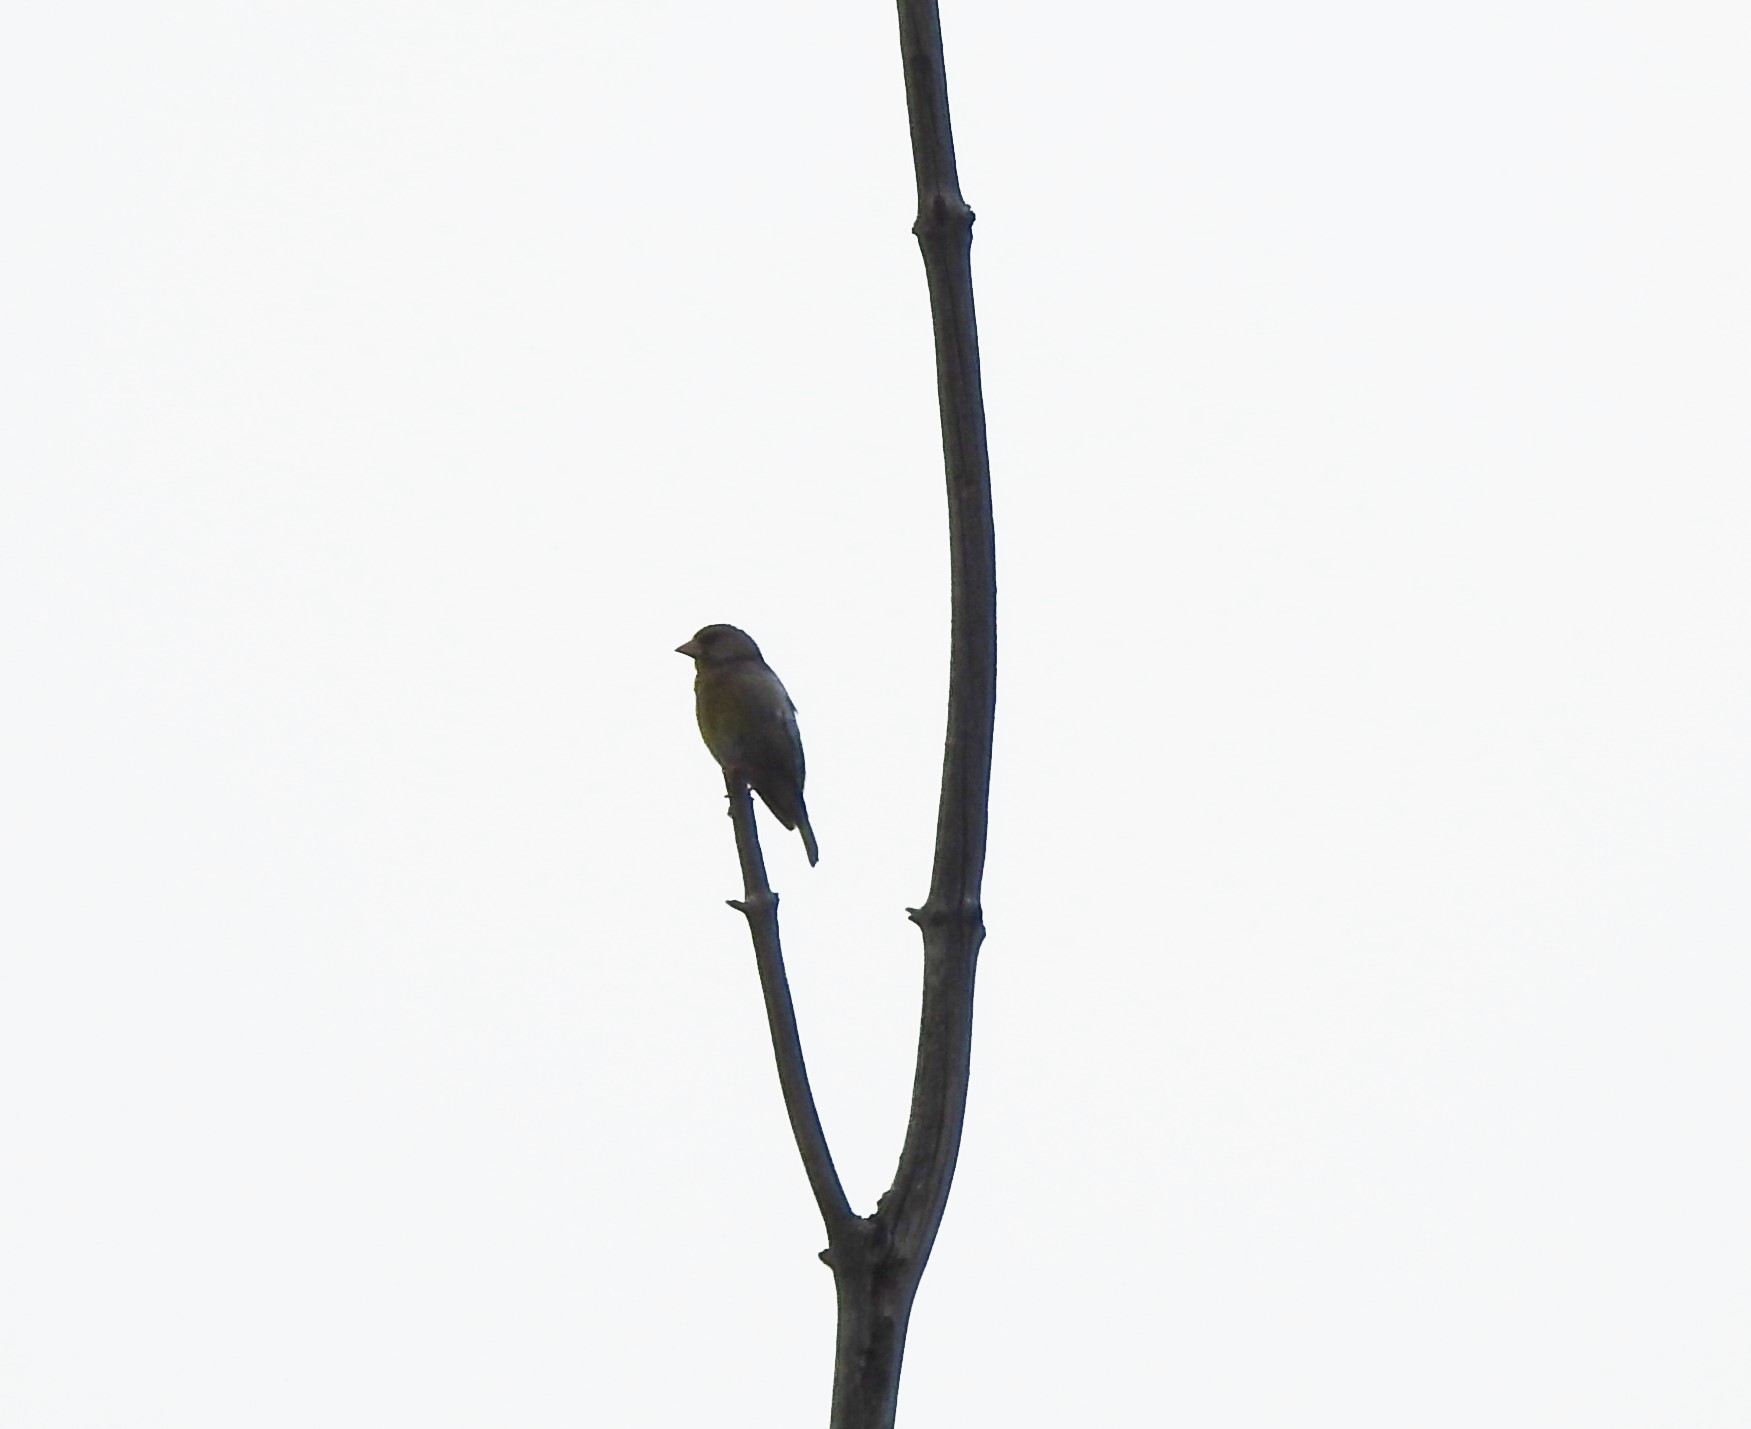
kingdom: Plantae
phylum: Tracheophyta
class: Liliopsida
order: Poales
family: Poaceae
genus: Chloris
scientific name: Chloris chloris
